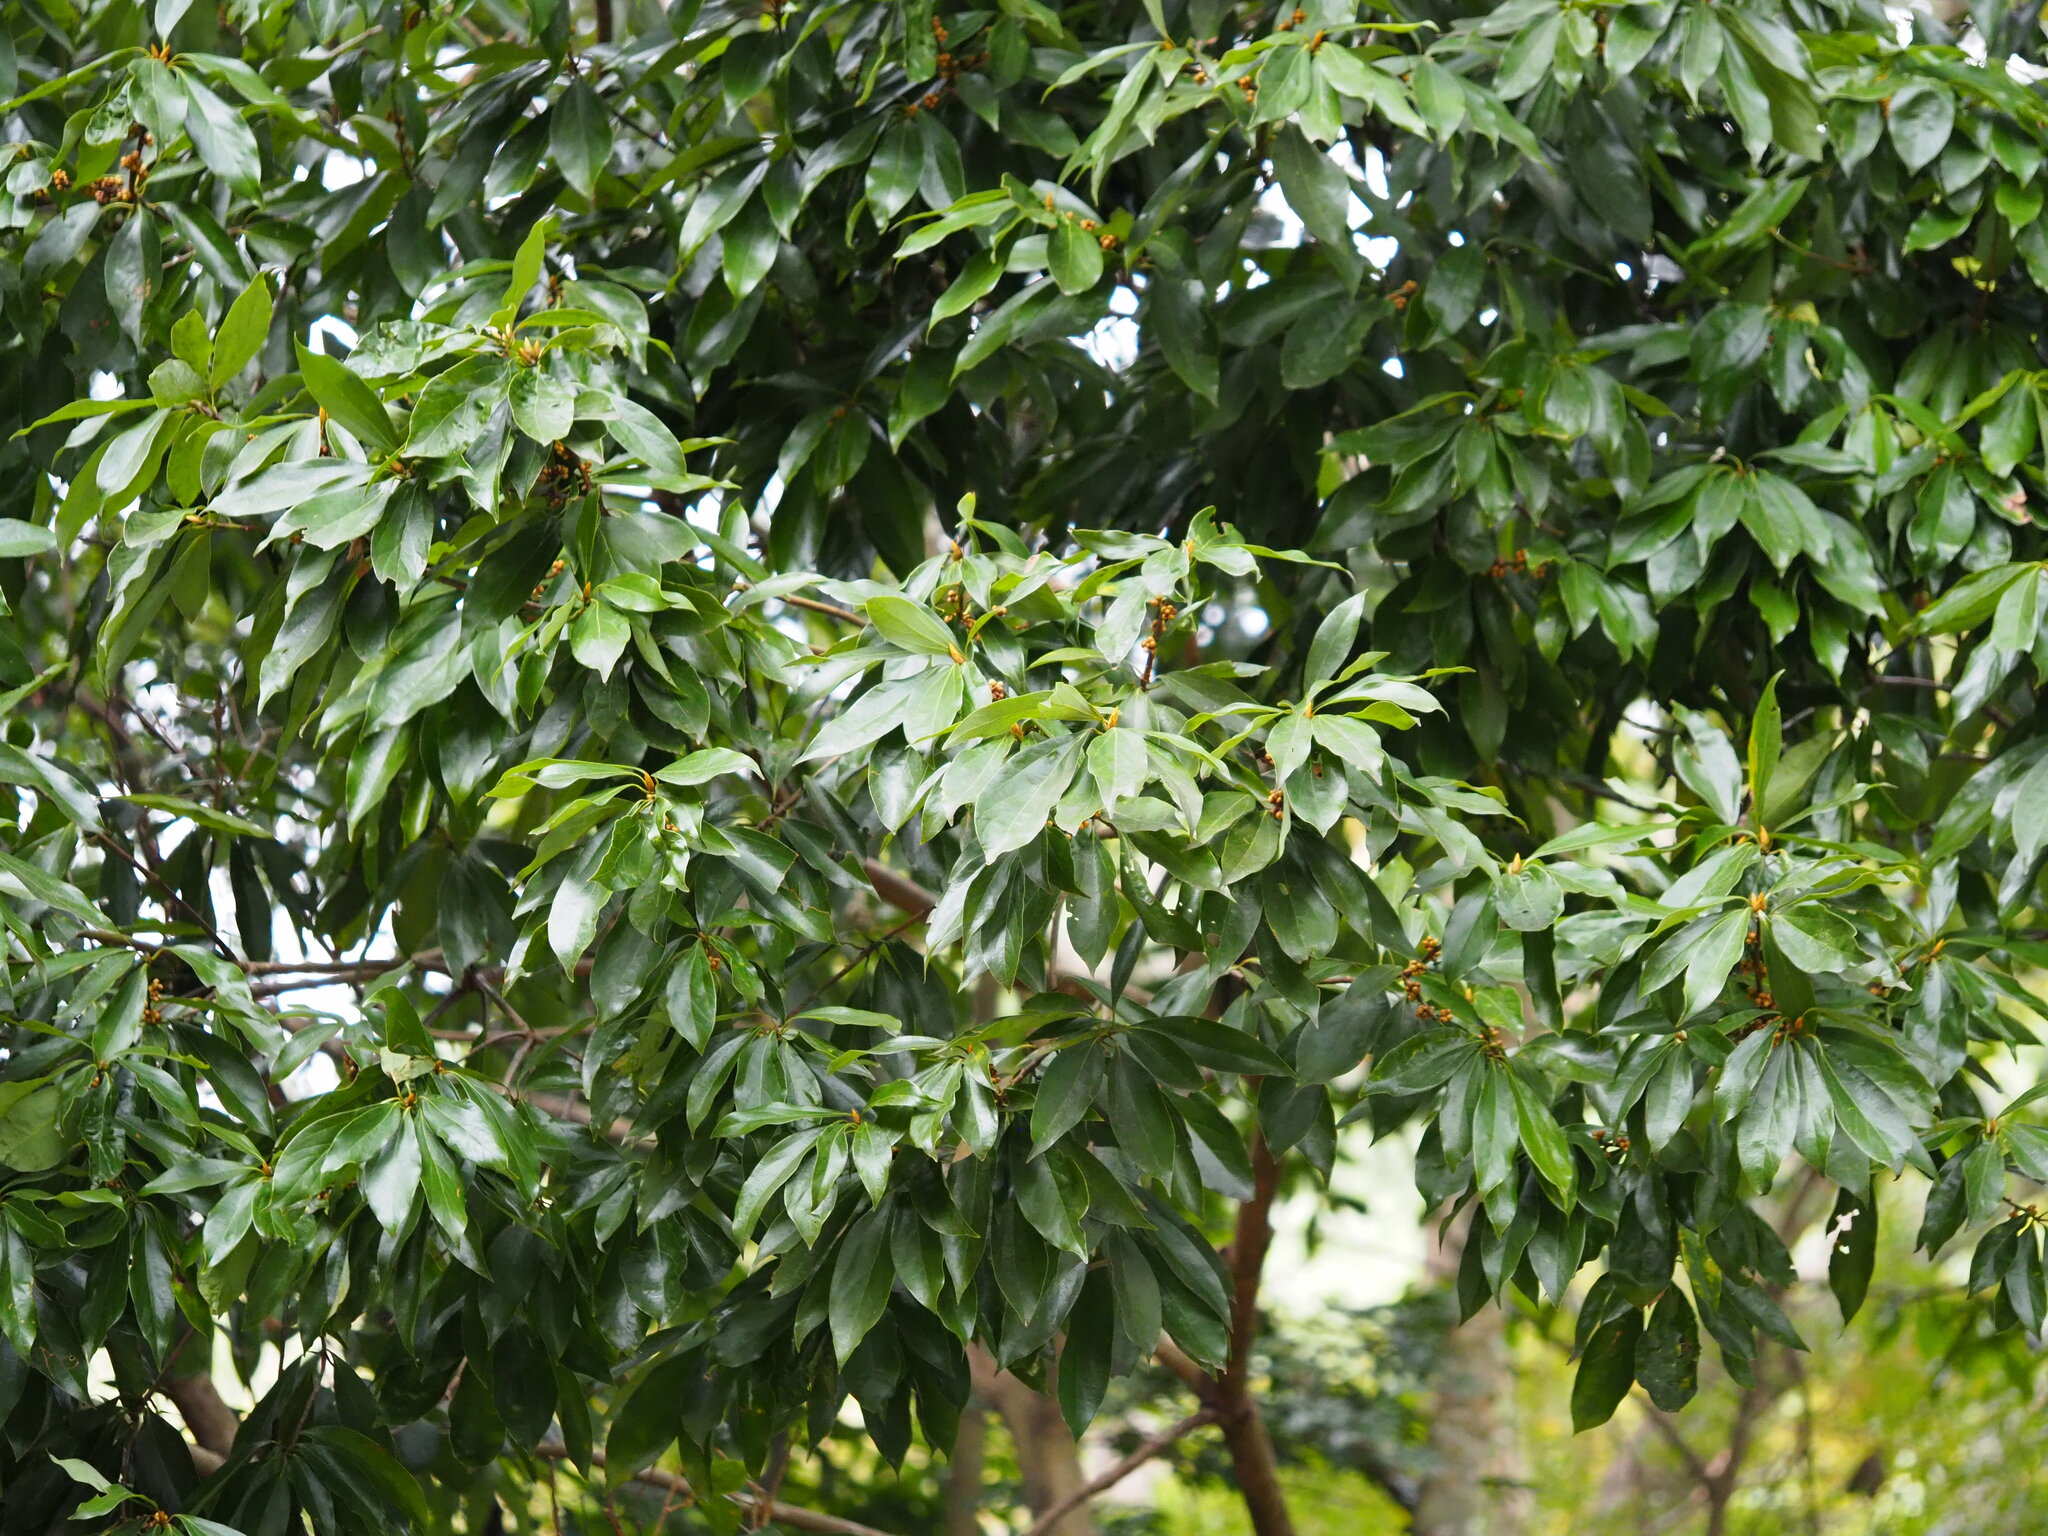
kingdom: Plantae
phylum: Tracheophyta
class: Magnoliopsida
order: Laurales
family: Lauraceae
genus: Neolitsea
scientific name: Neolitsea konishii
